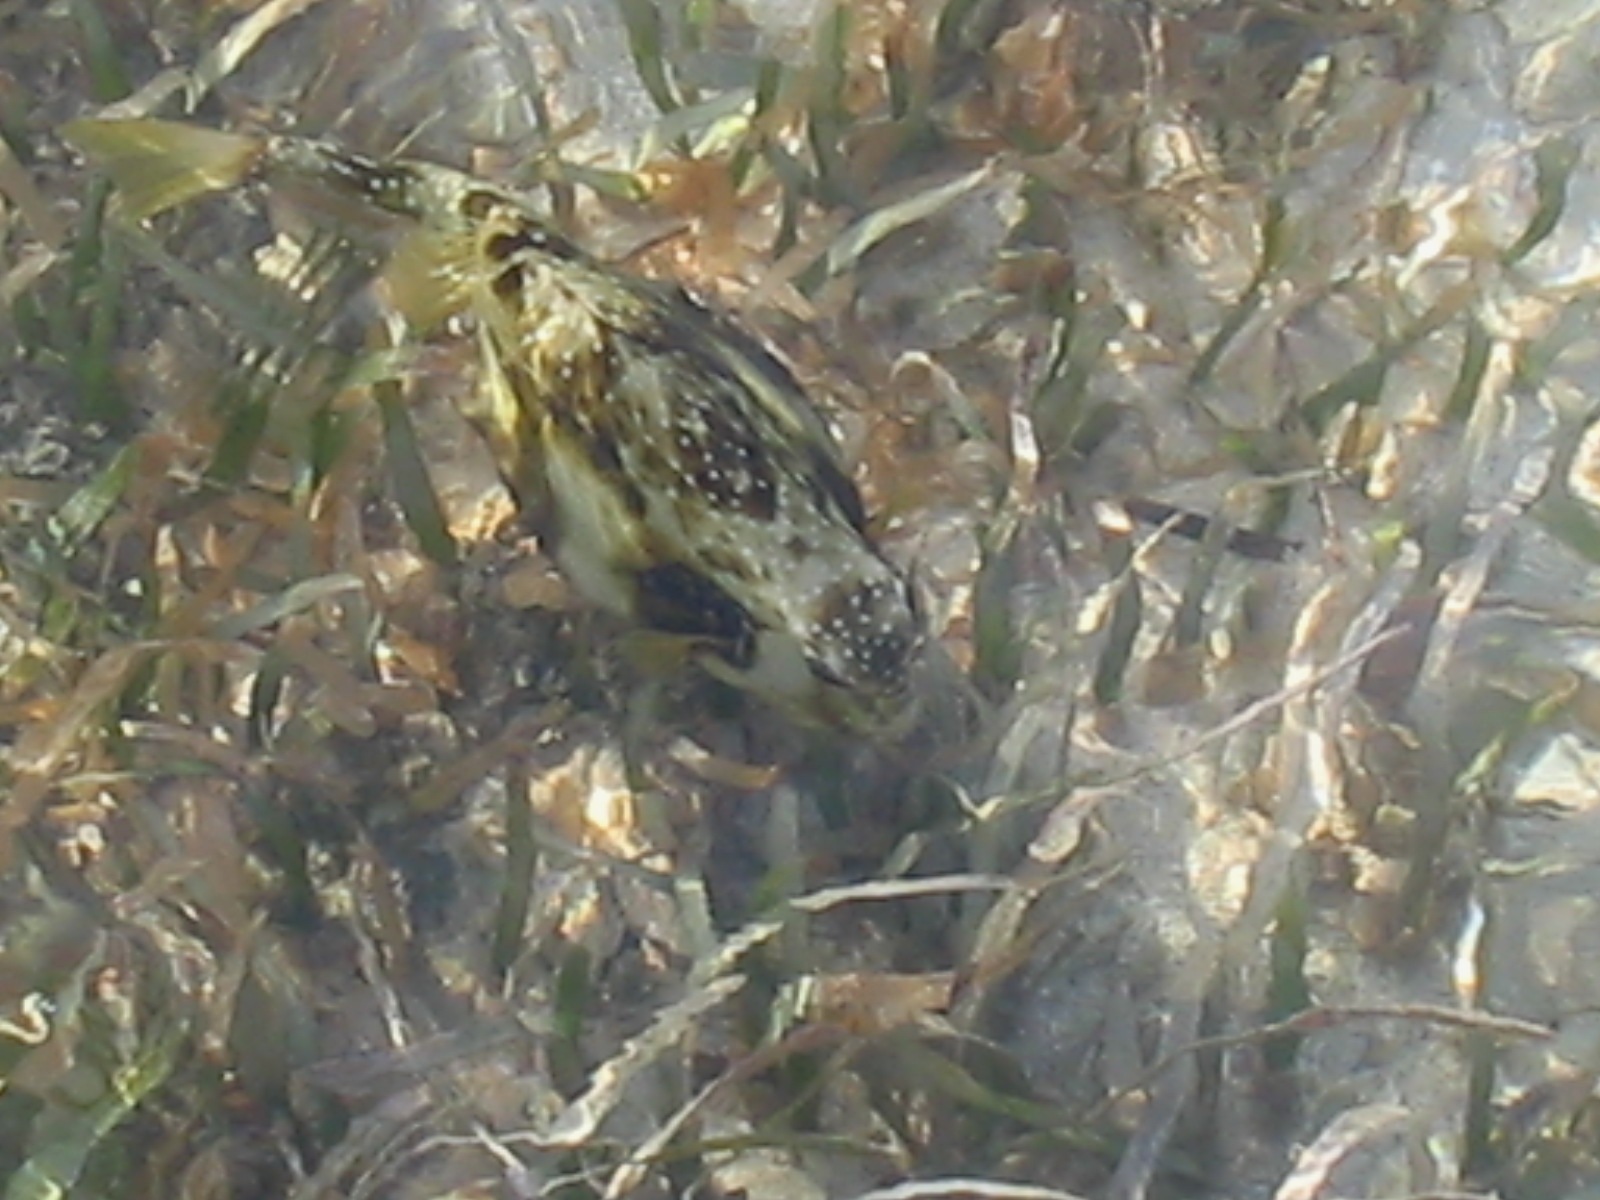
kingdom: Animalia
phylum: Chordata
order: Tetraodontiformes
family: Ostraciidae
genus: Acanthostracion
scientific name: Acanthostracion quadricornis
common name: Scrawled cowfish
